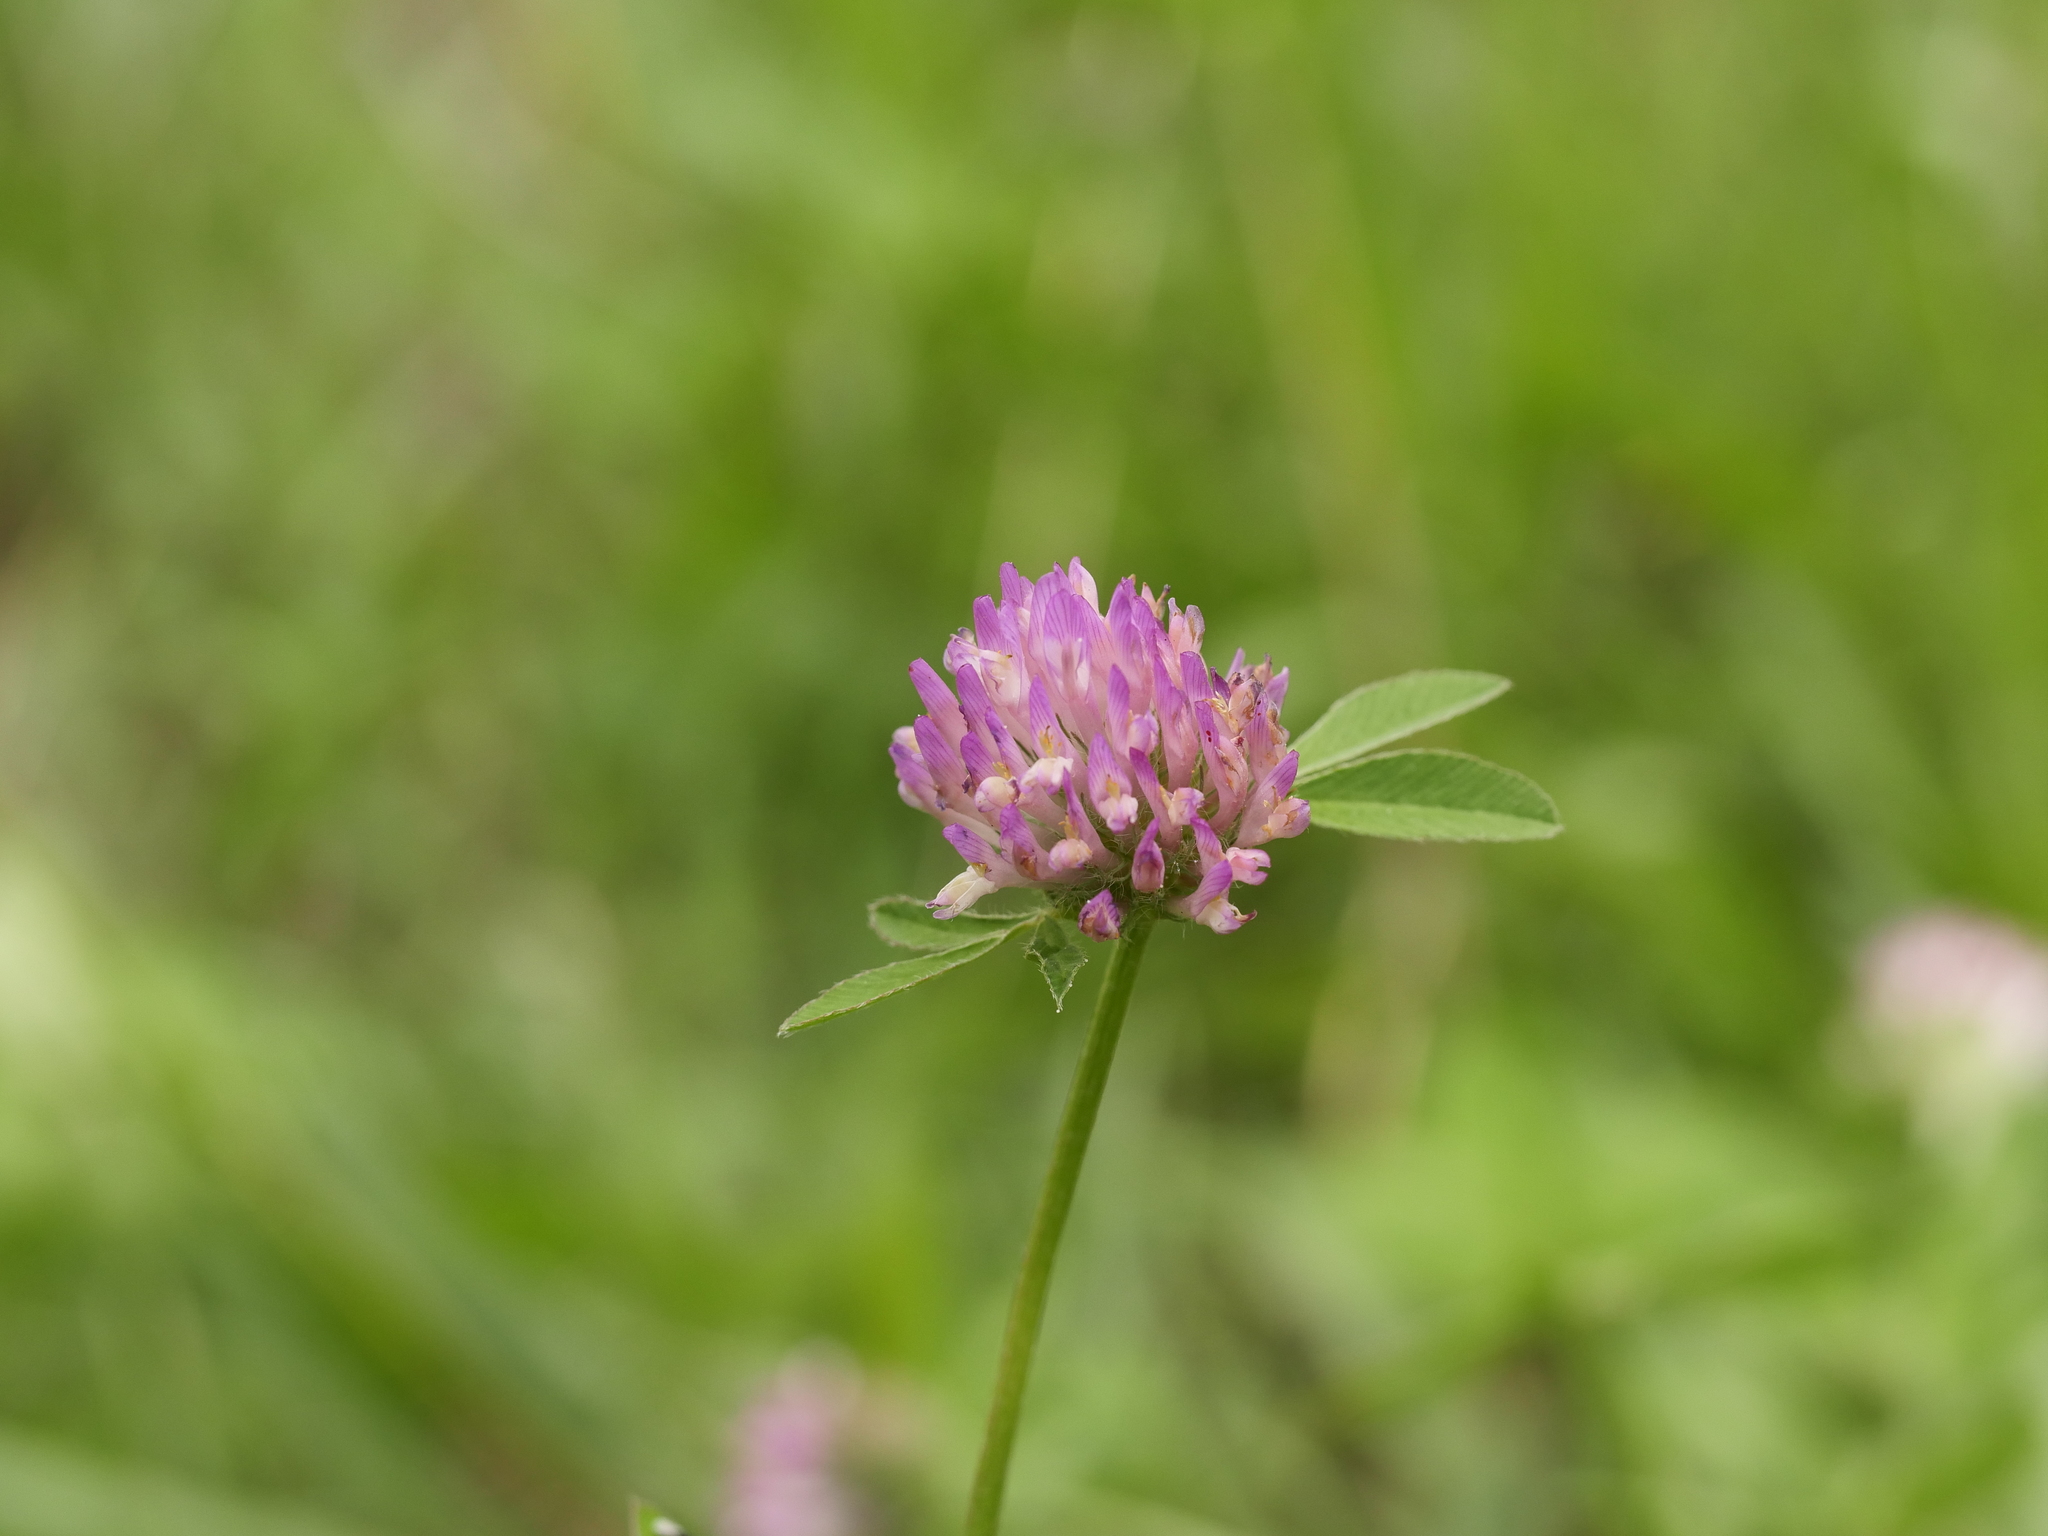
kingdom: Plantae
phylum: Tracheophyta
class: Magnoliopsida
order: Fabales
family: Fabaceae
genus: Trifolium
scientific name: Trifolium pratense
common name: Red clover
